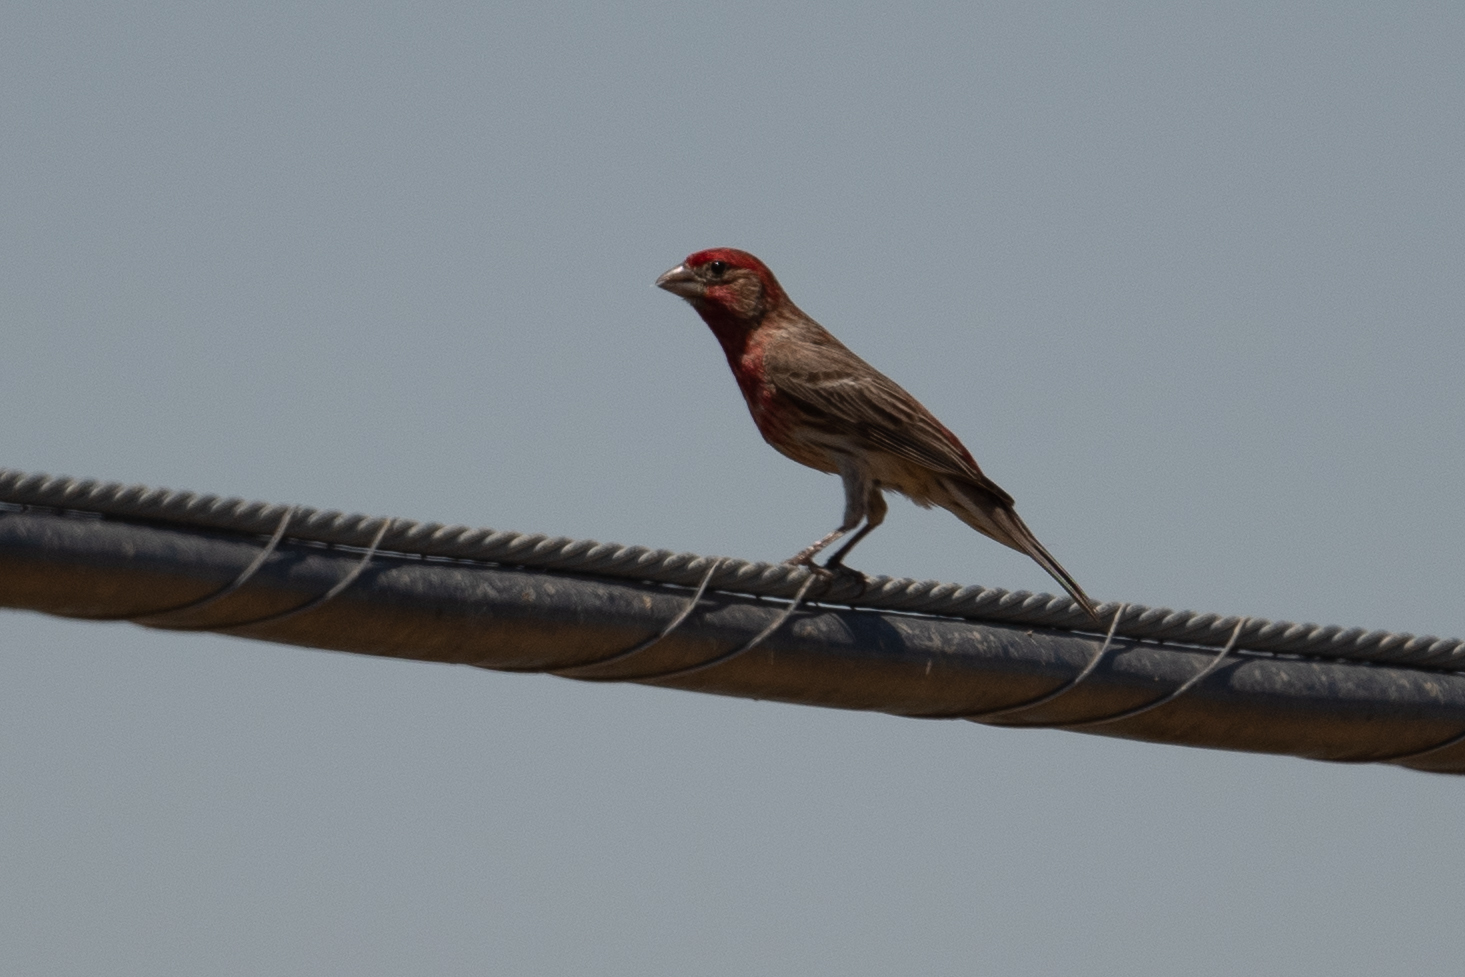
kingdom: Animalia
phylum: Chordata
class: Aves
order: Passeriformes
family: Fringillidae
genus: Haemorhous
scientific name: Haemorhous mexicanus
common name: House finch
